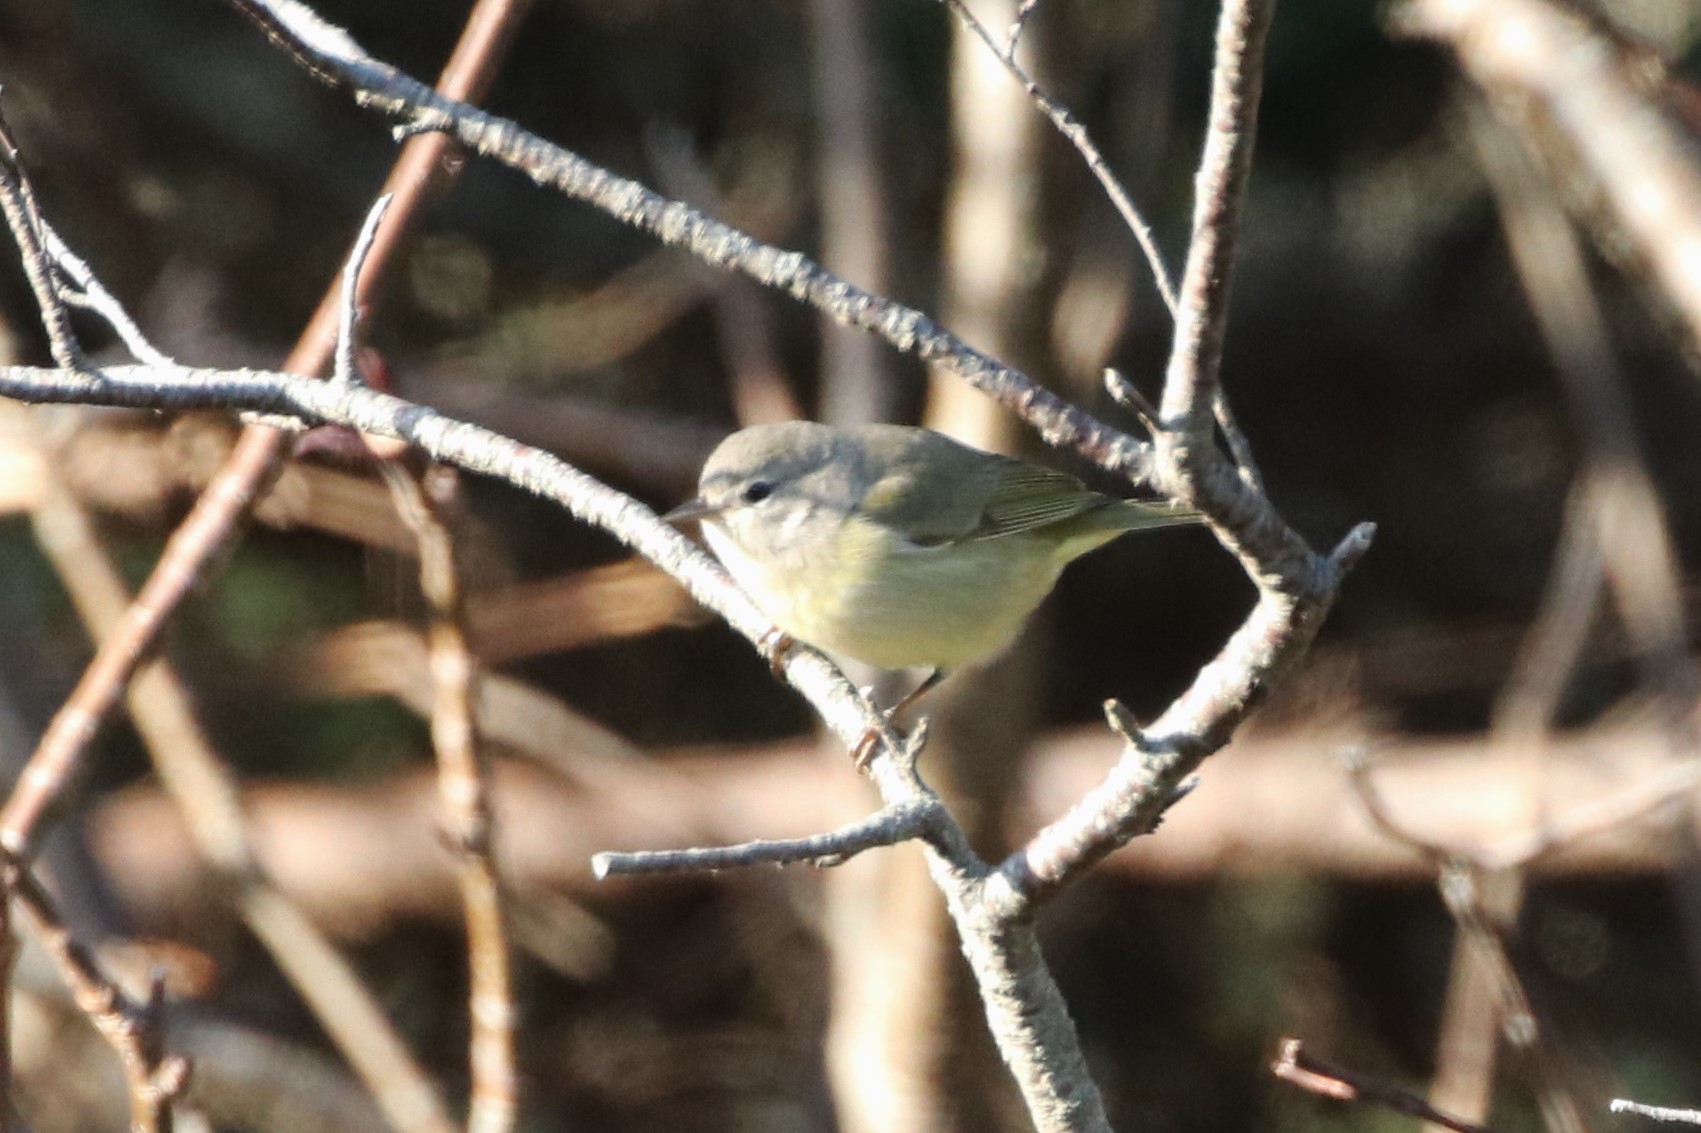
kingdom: Animalia
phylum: Chordata
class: Aves
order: Passeriformes
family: Parulidae
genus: Leiothlypis
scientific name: Leiothlypis celata
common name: Orange-crowned warbler
